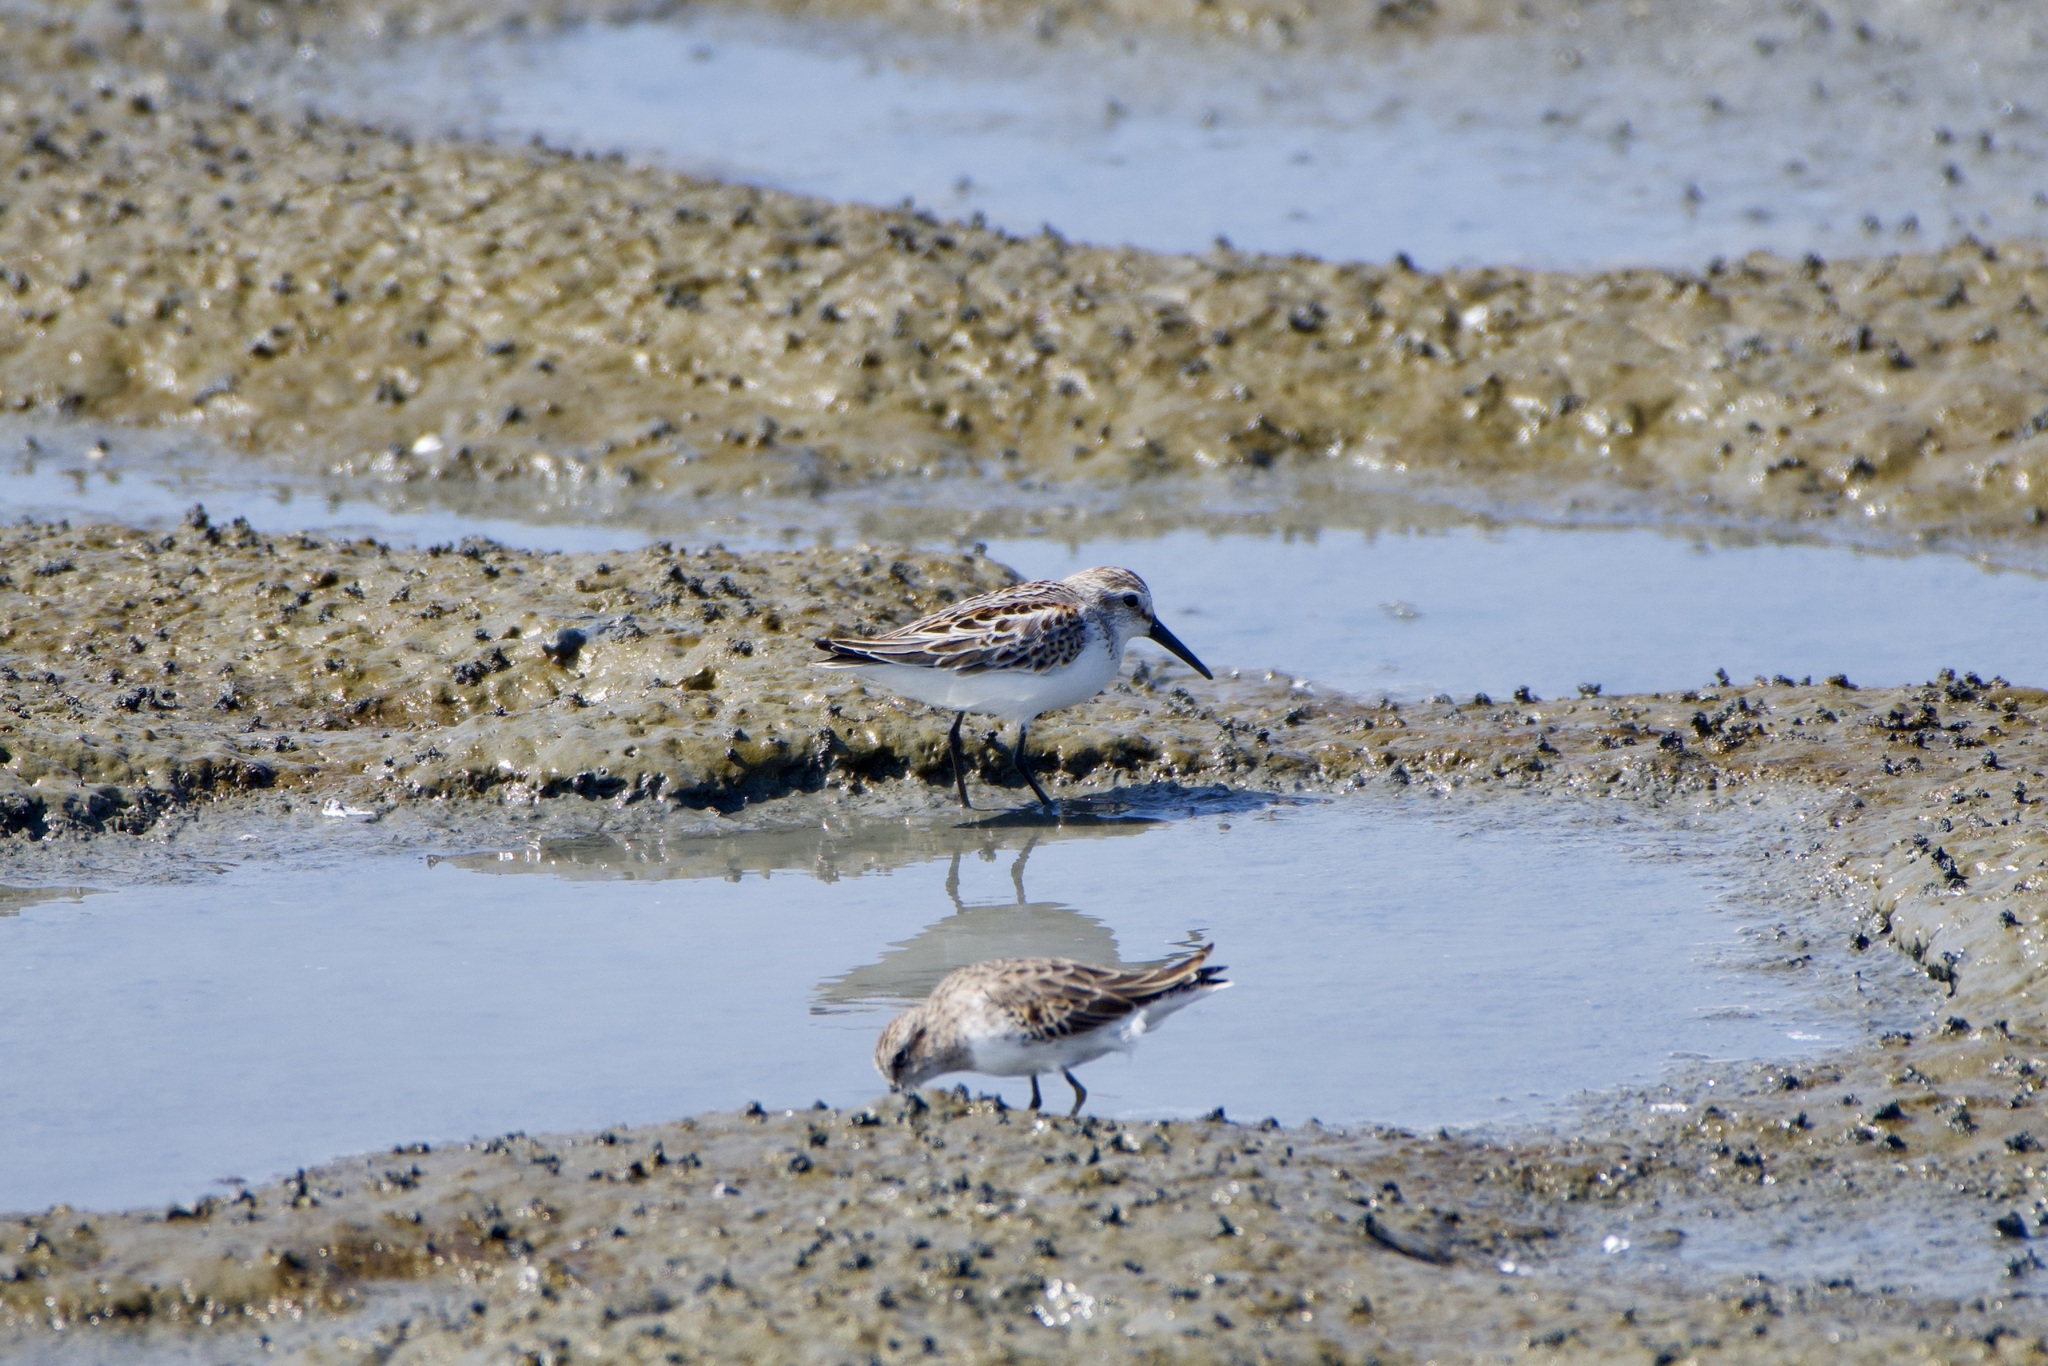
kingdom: Animalia
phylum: Chordata
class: Aves
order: Charadriiformes
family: Scolopacidae
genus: Calidris
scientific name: Calidris mauri
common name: Western sandpiper
